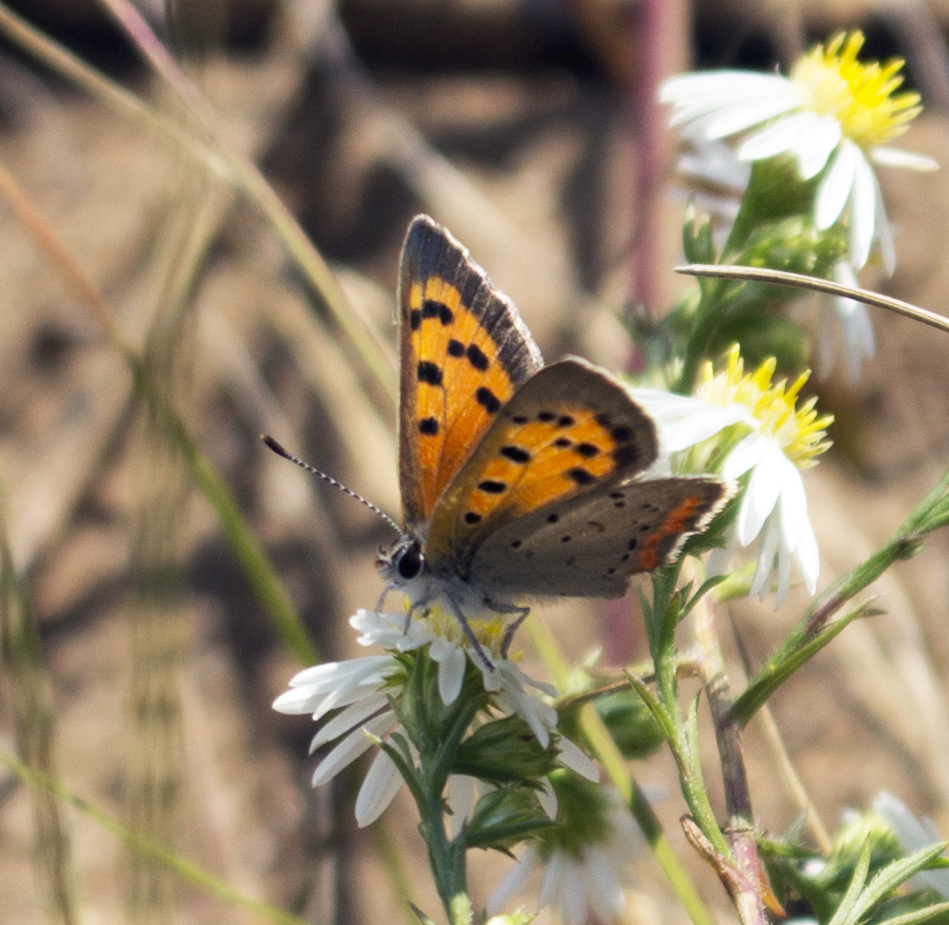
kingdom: Animalia
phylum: Arthropoda
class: Insecta
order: Lepidoptera
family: Lycaenidae
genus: Lycaena
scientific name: Lycaena hypophlaeas
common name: American copper
